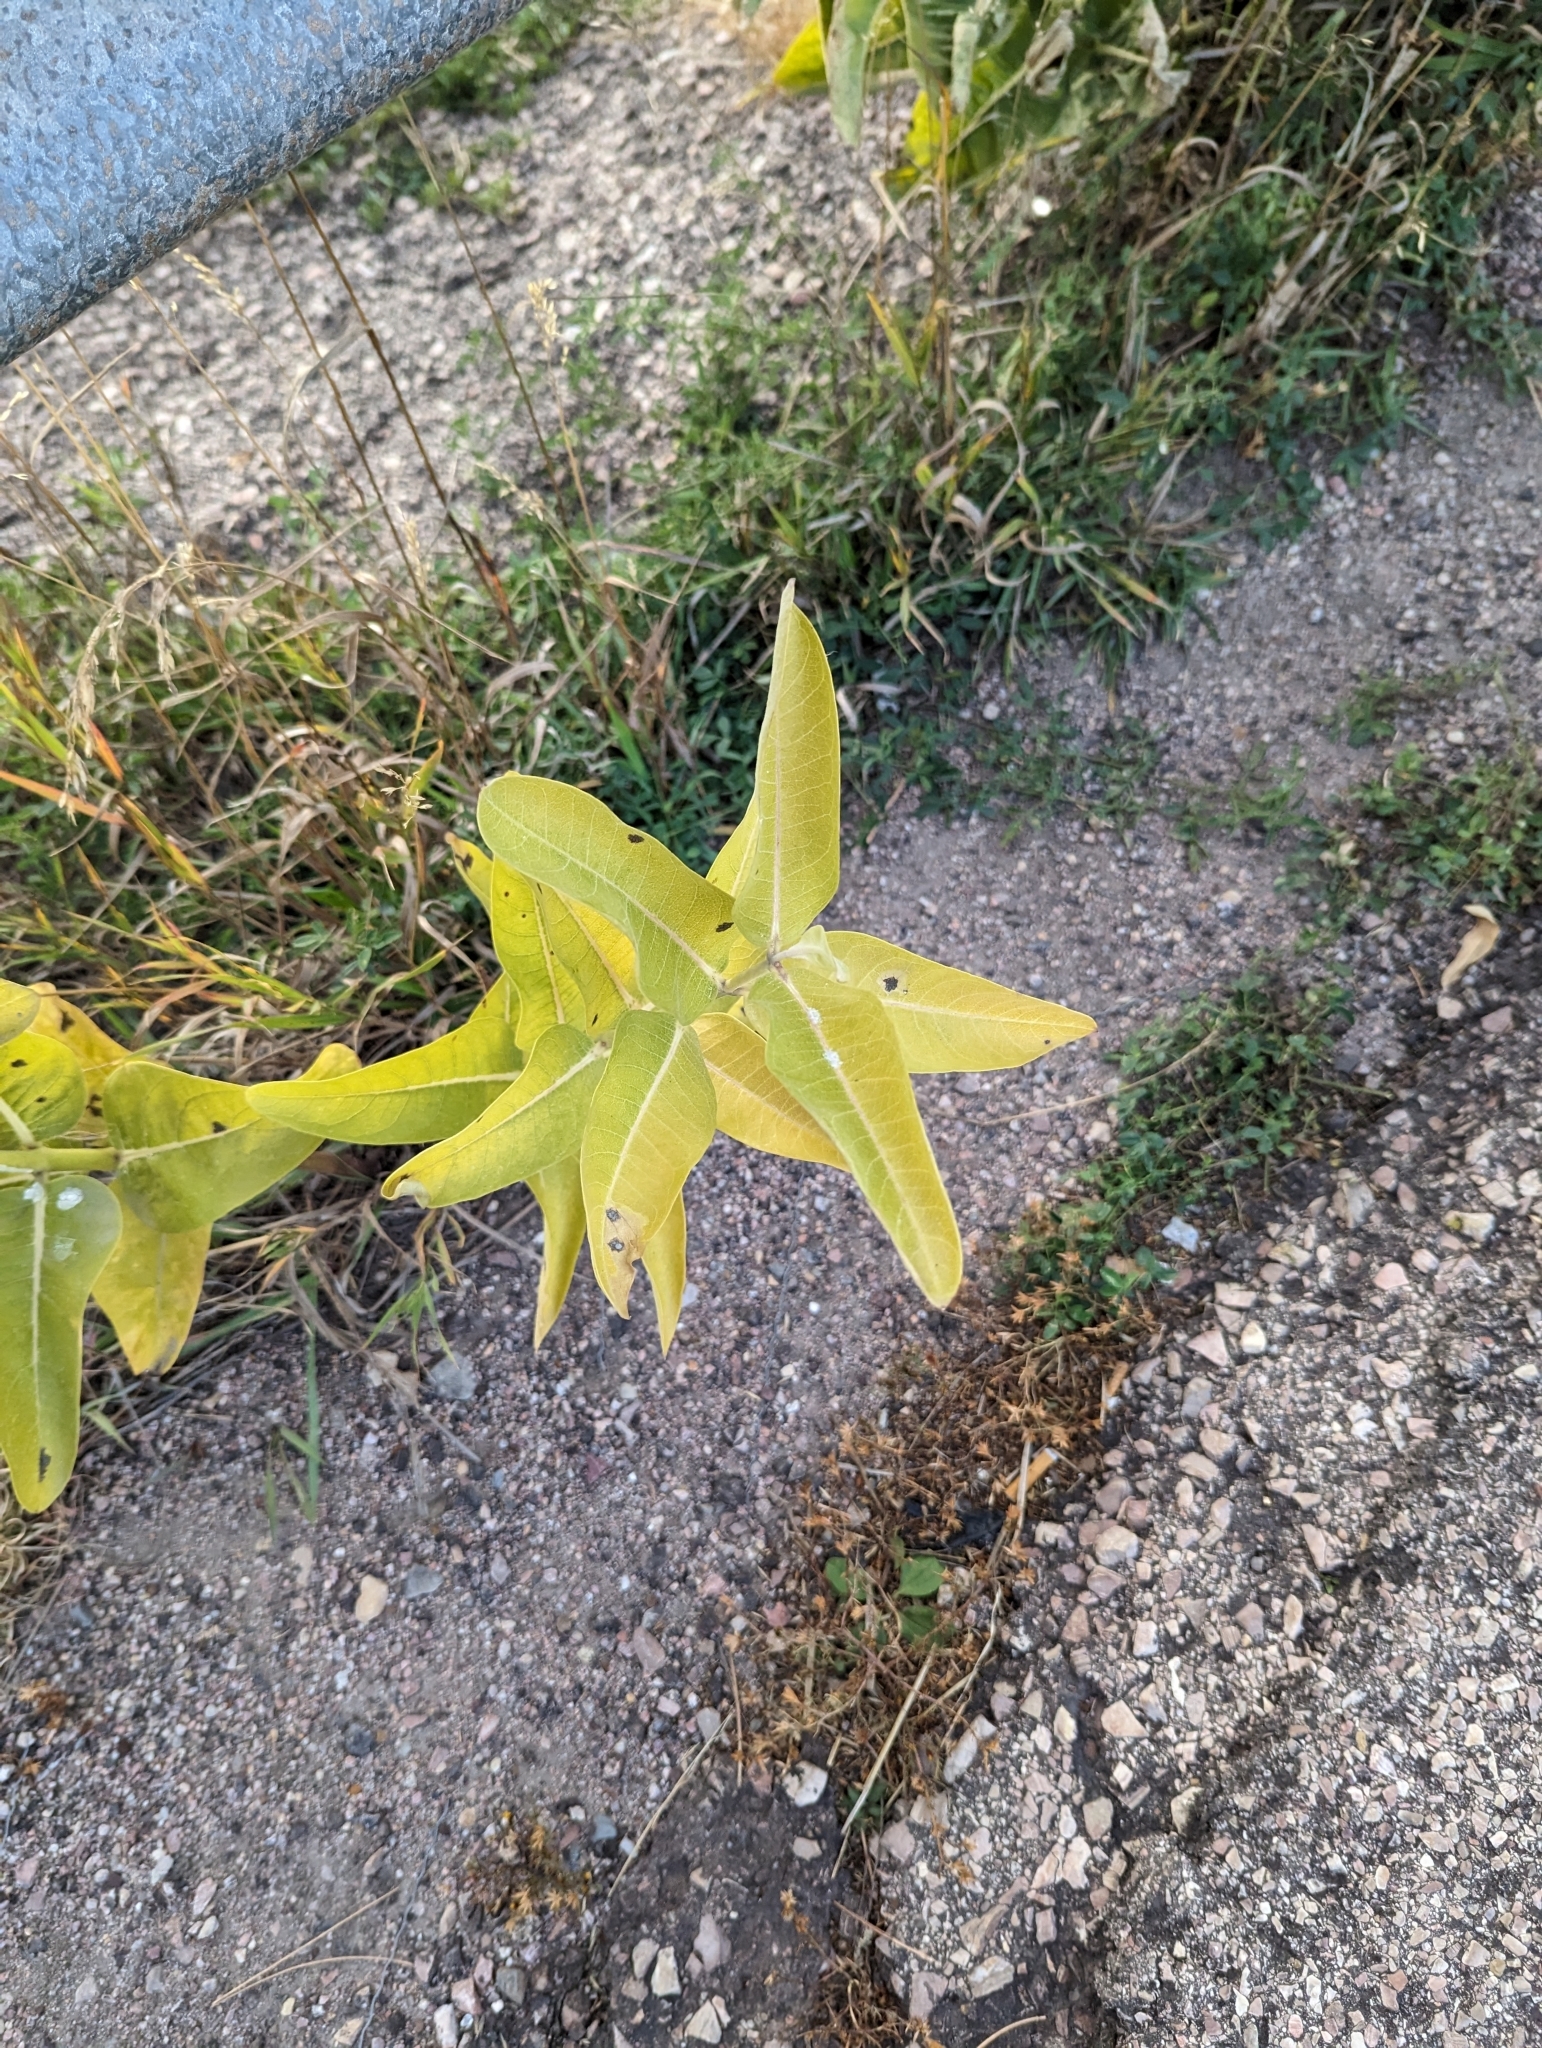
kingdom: Plantae
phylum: Tracheophyta
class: Magnoliopsida
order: Gentianales
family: Apocynaceae
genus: Asclepias
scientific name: Asclepias speciosa
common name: Showy milkweed
